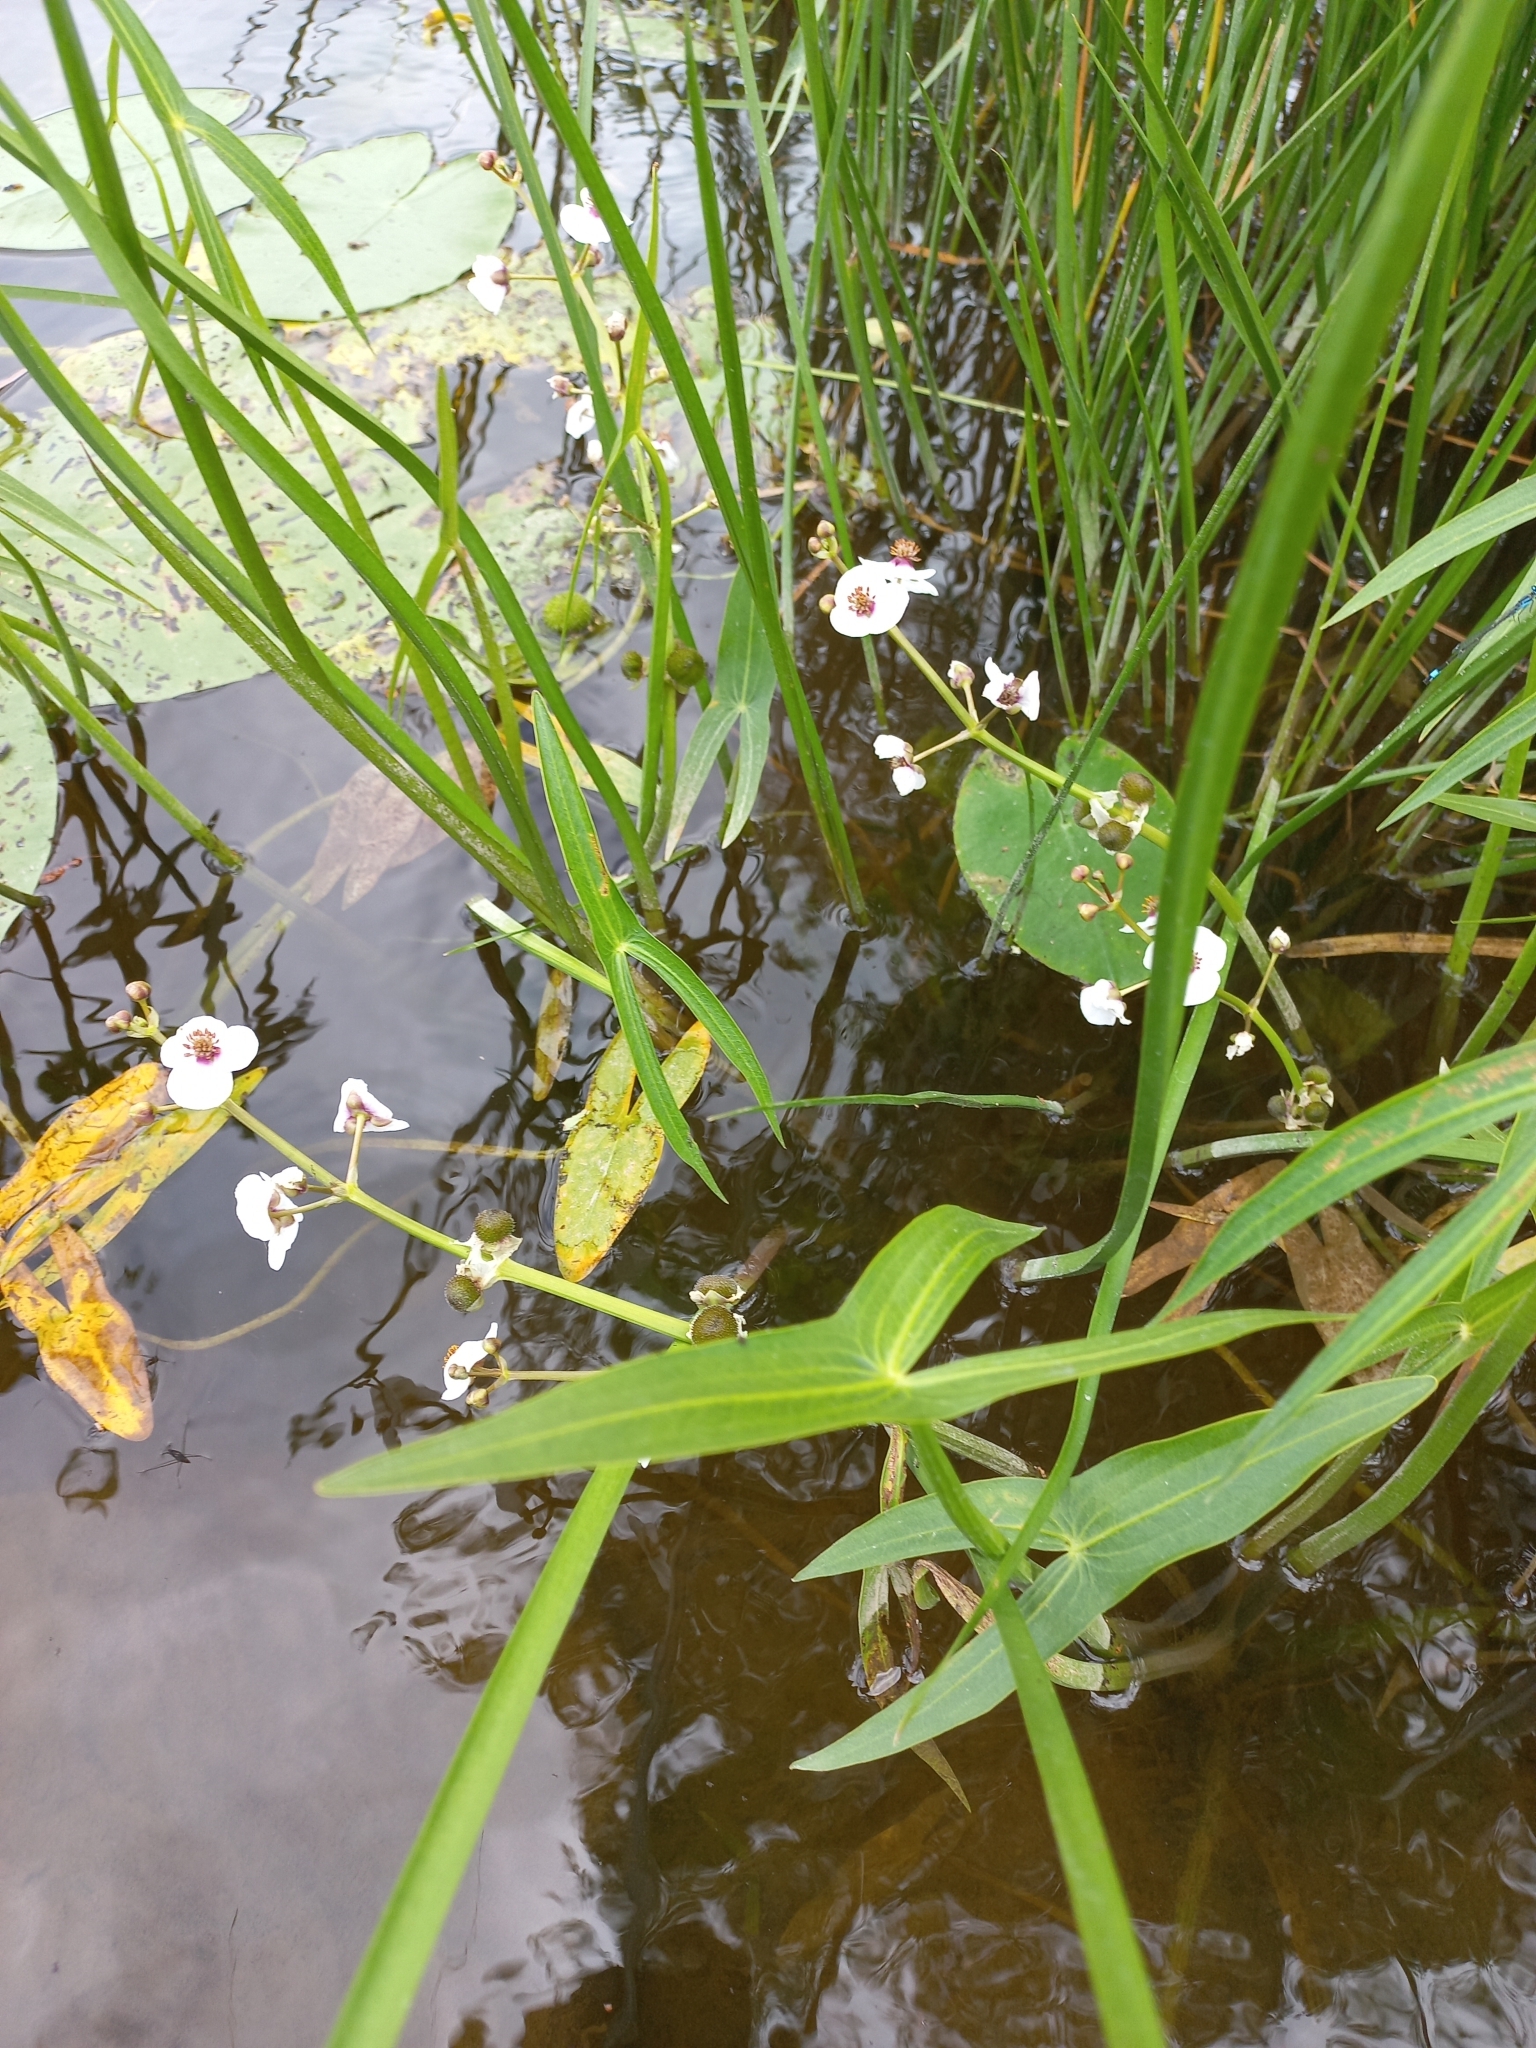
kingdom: Plantae
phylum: Tracheophyta
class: Liliopsida
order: Alismatales
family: Alismataceae
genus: Sagittaria
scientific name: Sagittaria sagittifolia
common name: Arrowhead
